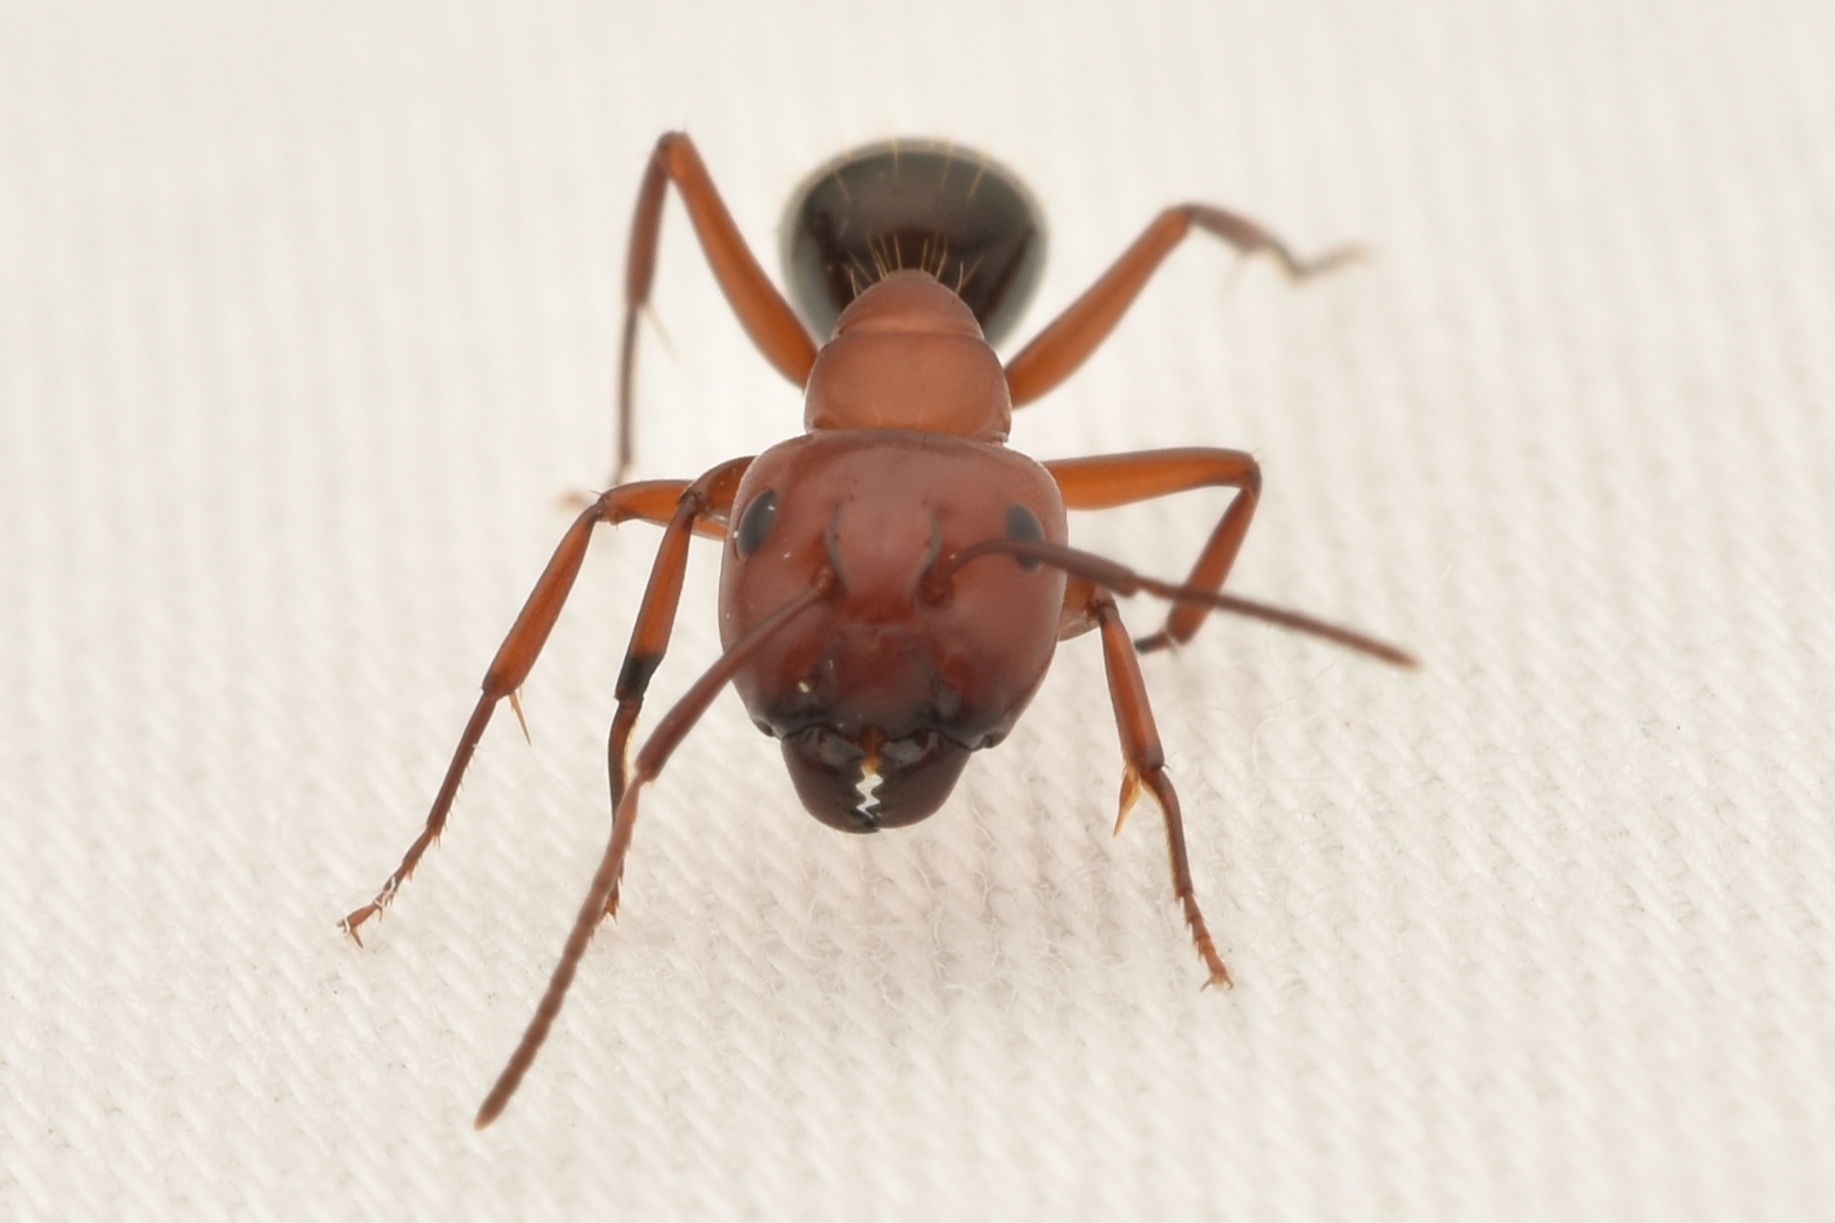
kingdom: Animalia
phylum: Arthropoda
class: Insecta
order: Hymenoptera
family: Formicidae
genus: Camponotus
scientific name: Camponotus decipiens
